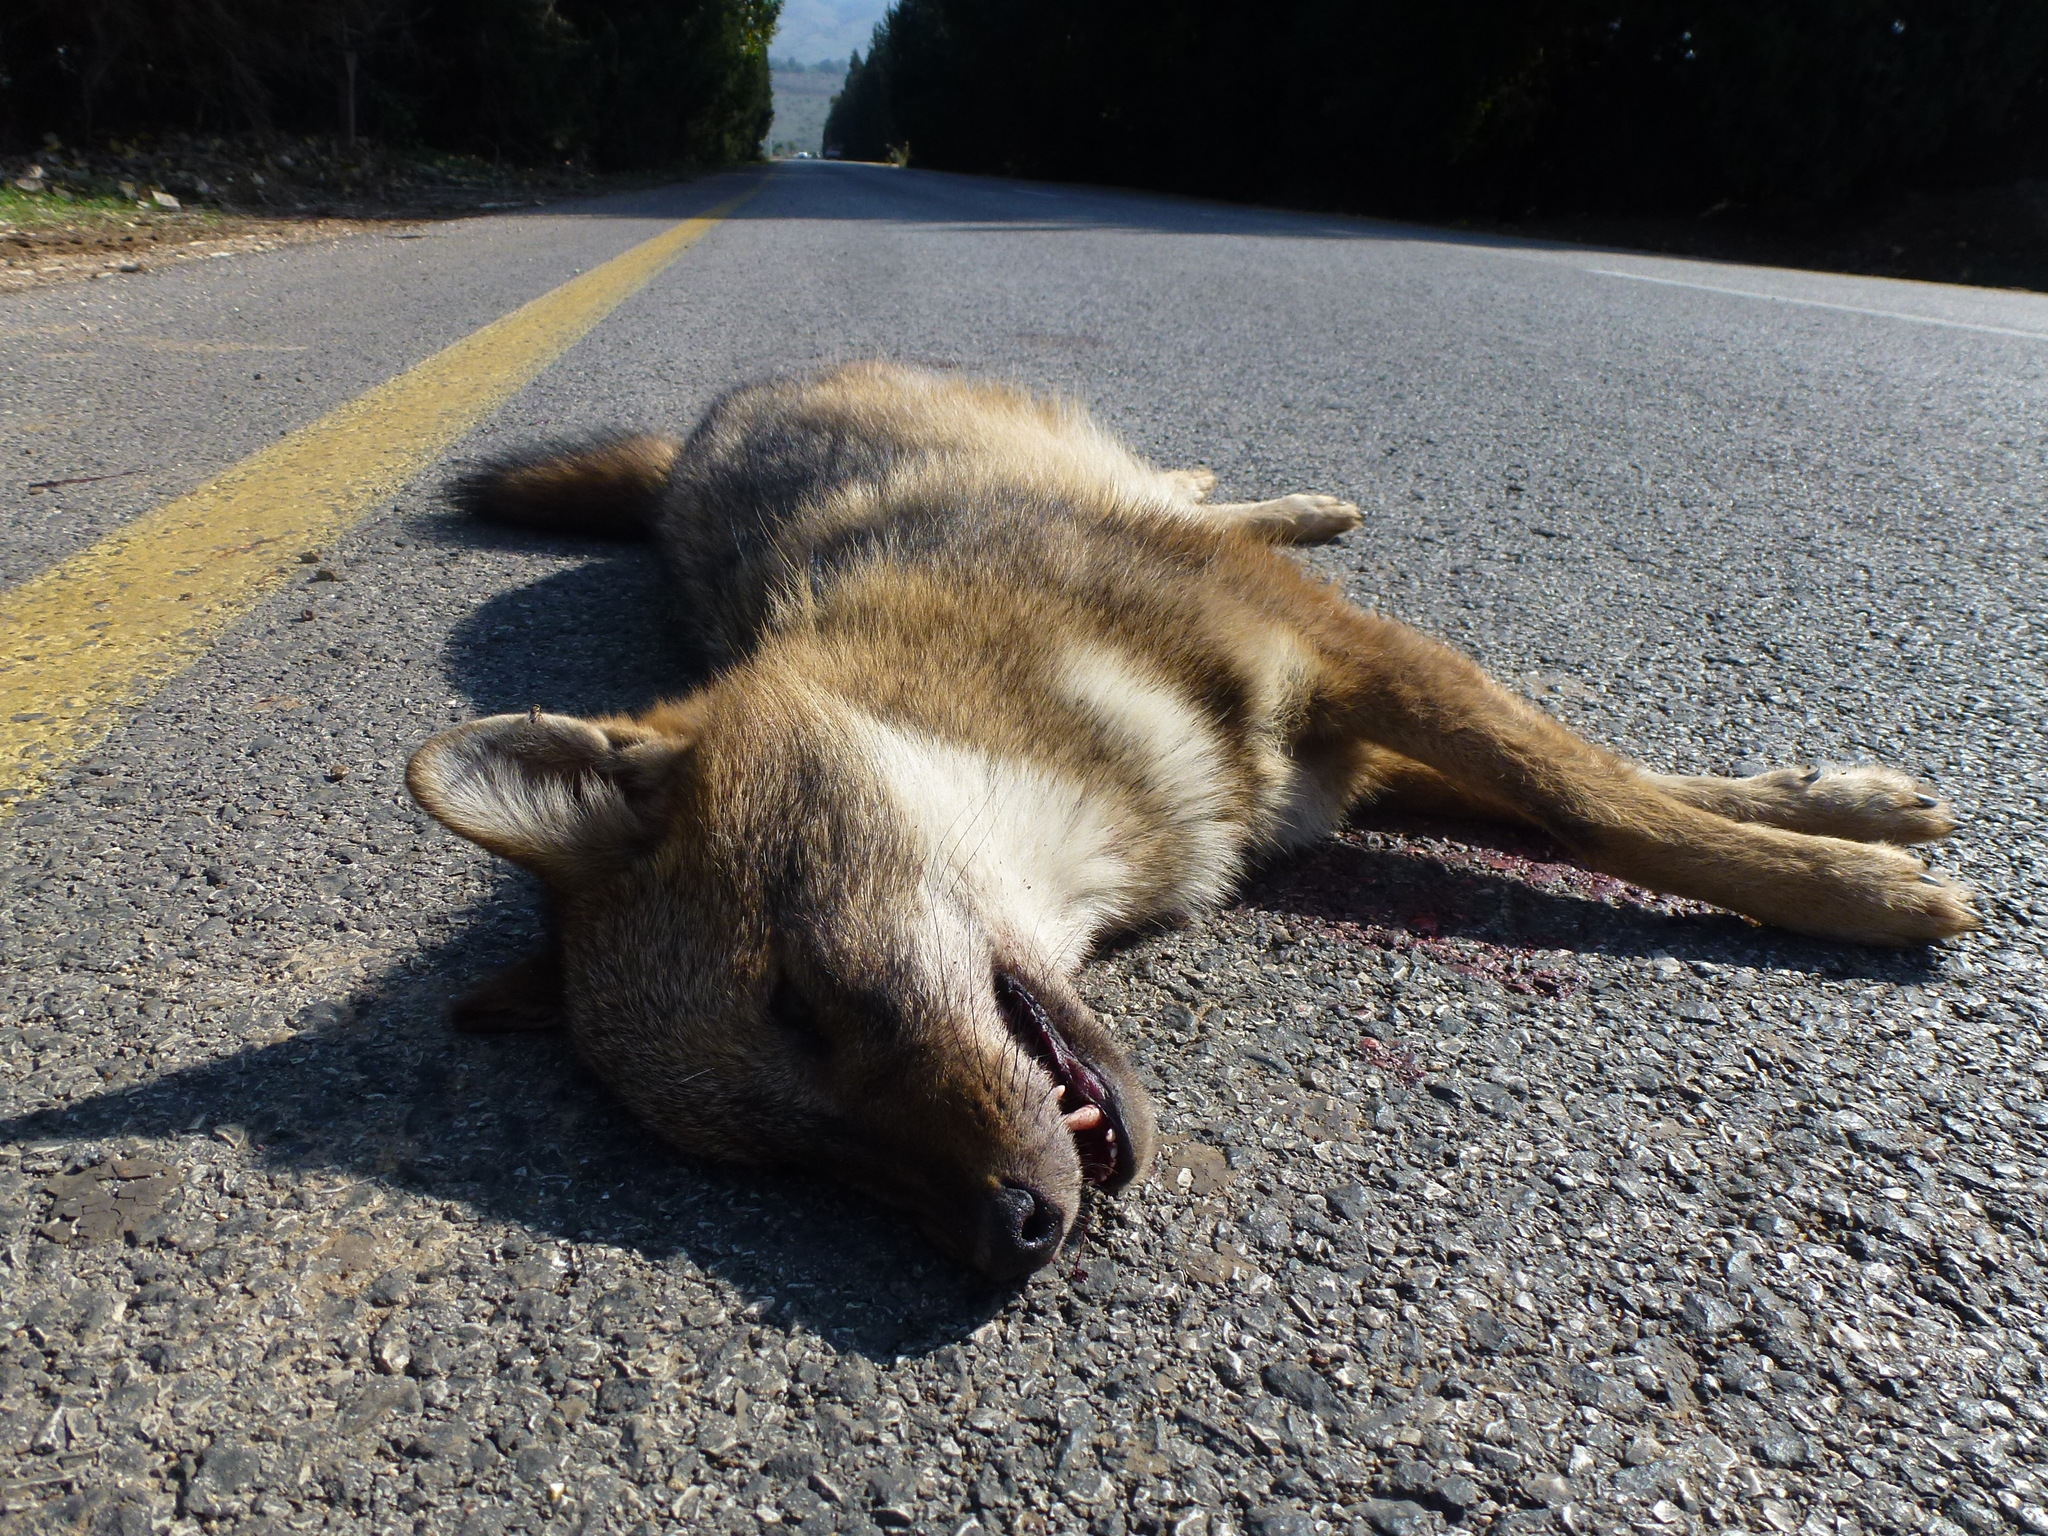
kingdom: Animalia
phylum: Chordata
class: Mammalia
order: Carnivora
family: Canidae
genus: Canis
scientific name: Canis aureus
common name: Golden jackal
